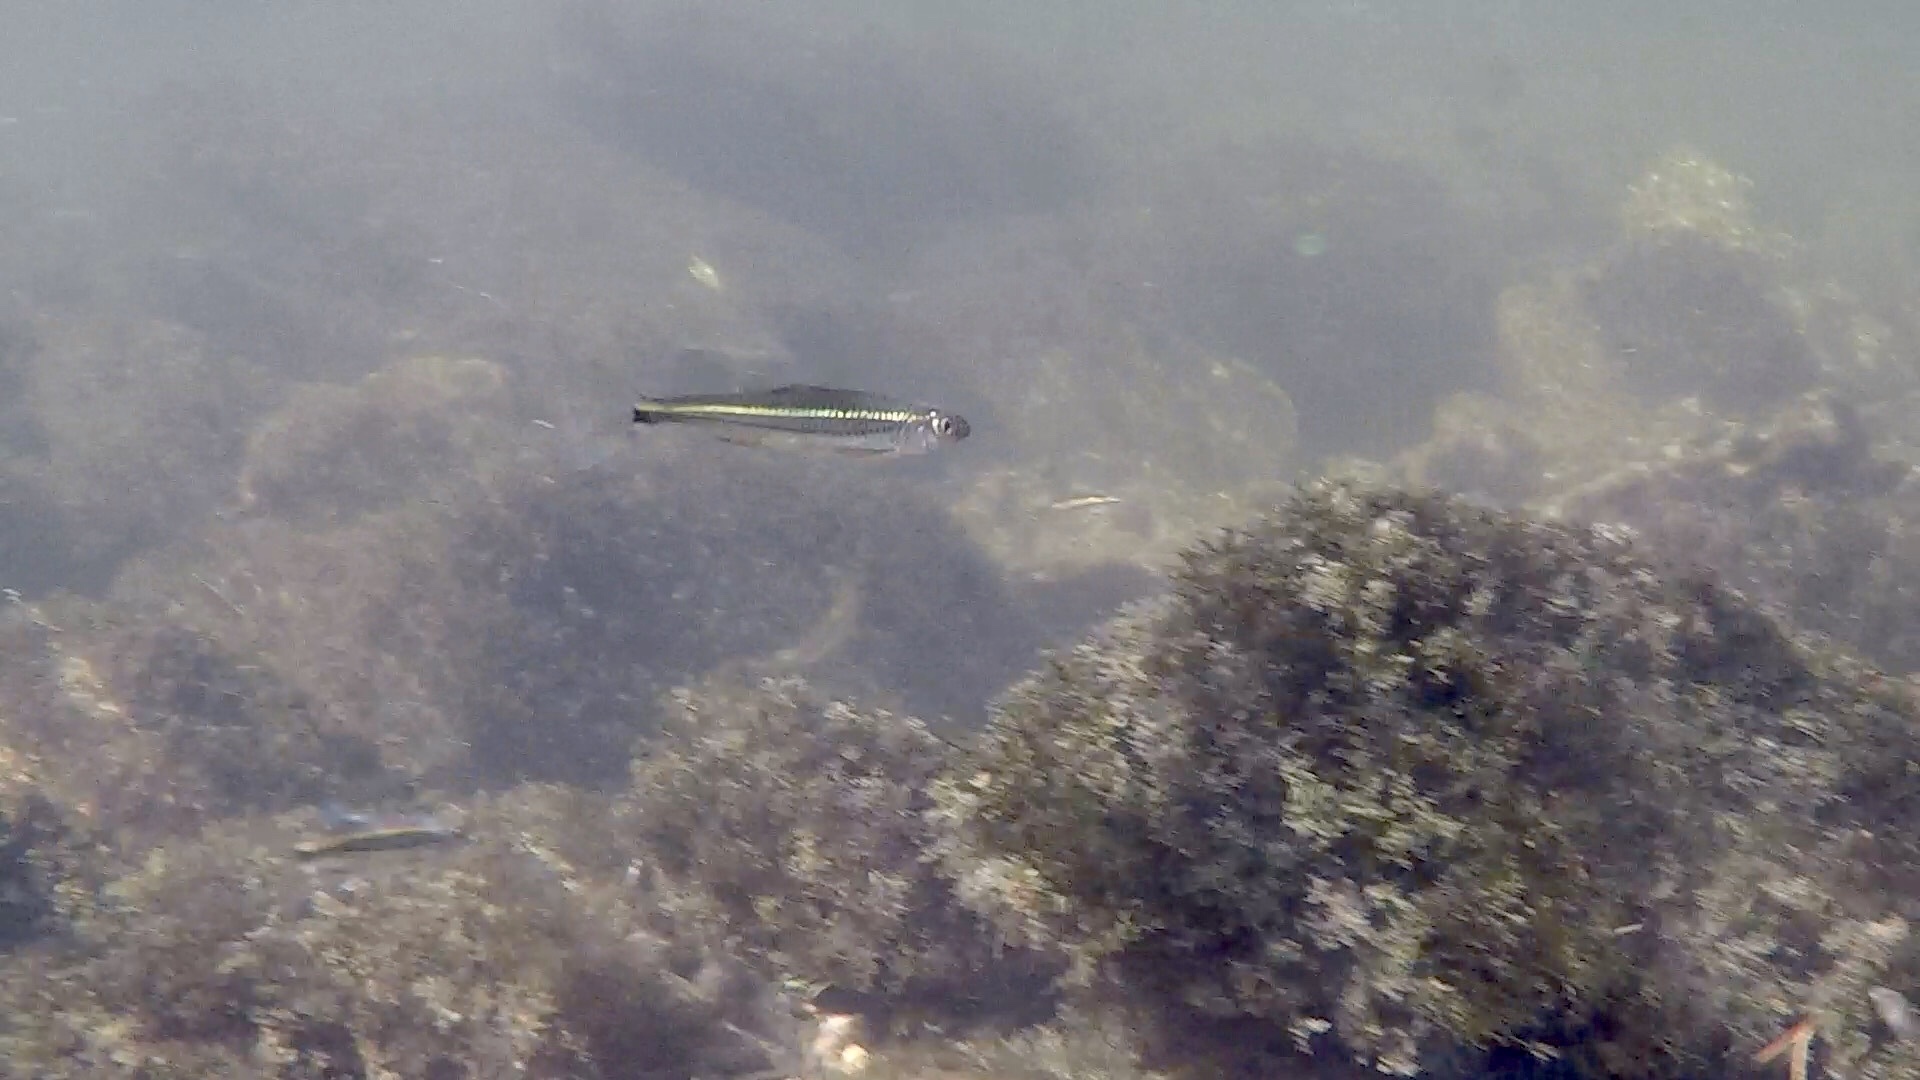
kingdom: Animalia
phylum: Chordata
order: Cypriniformes
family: Cyprinidae
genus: Notropis
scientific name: Notropis
